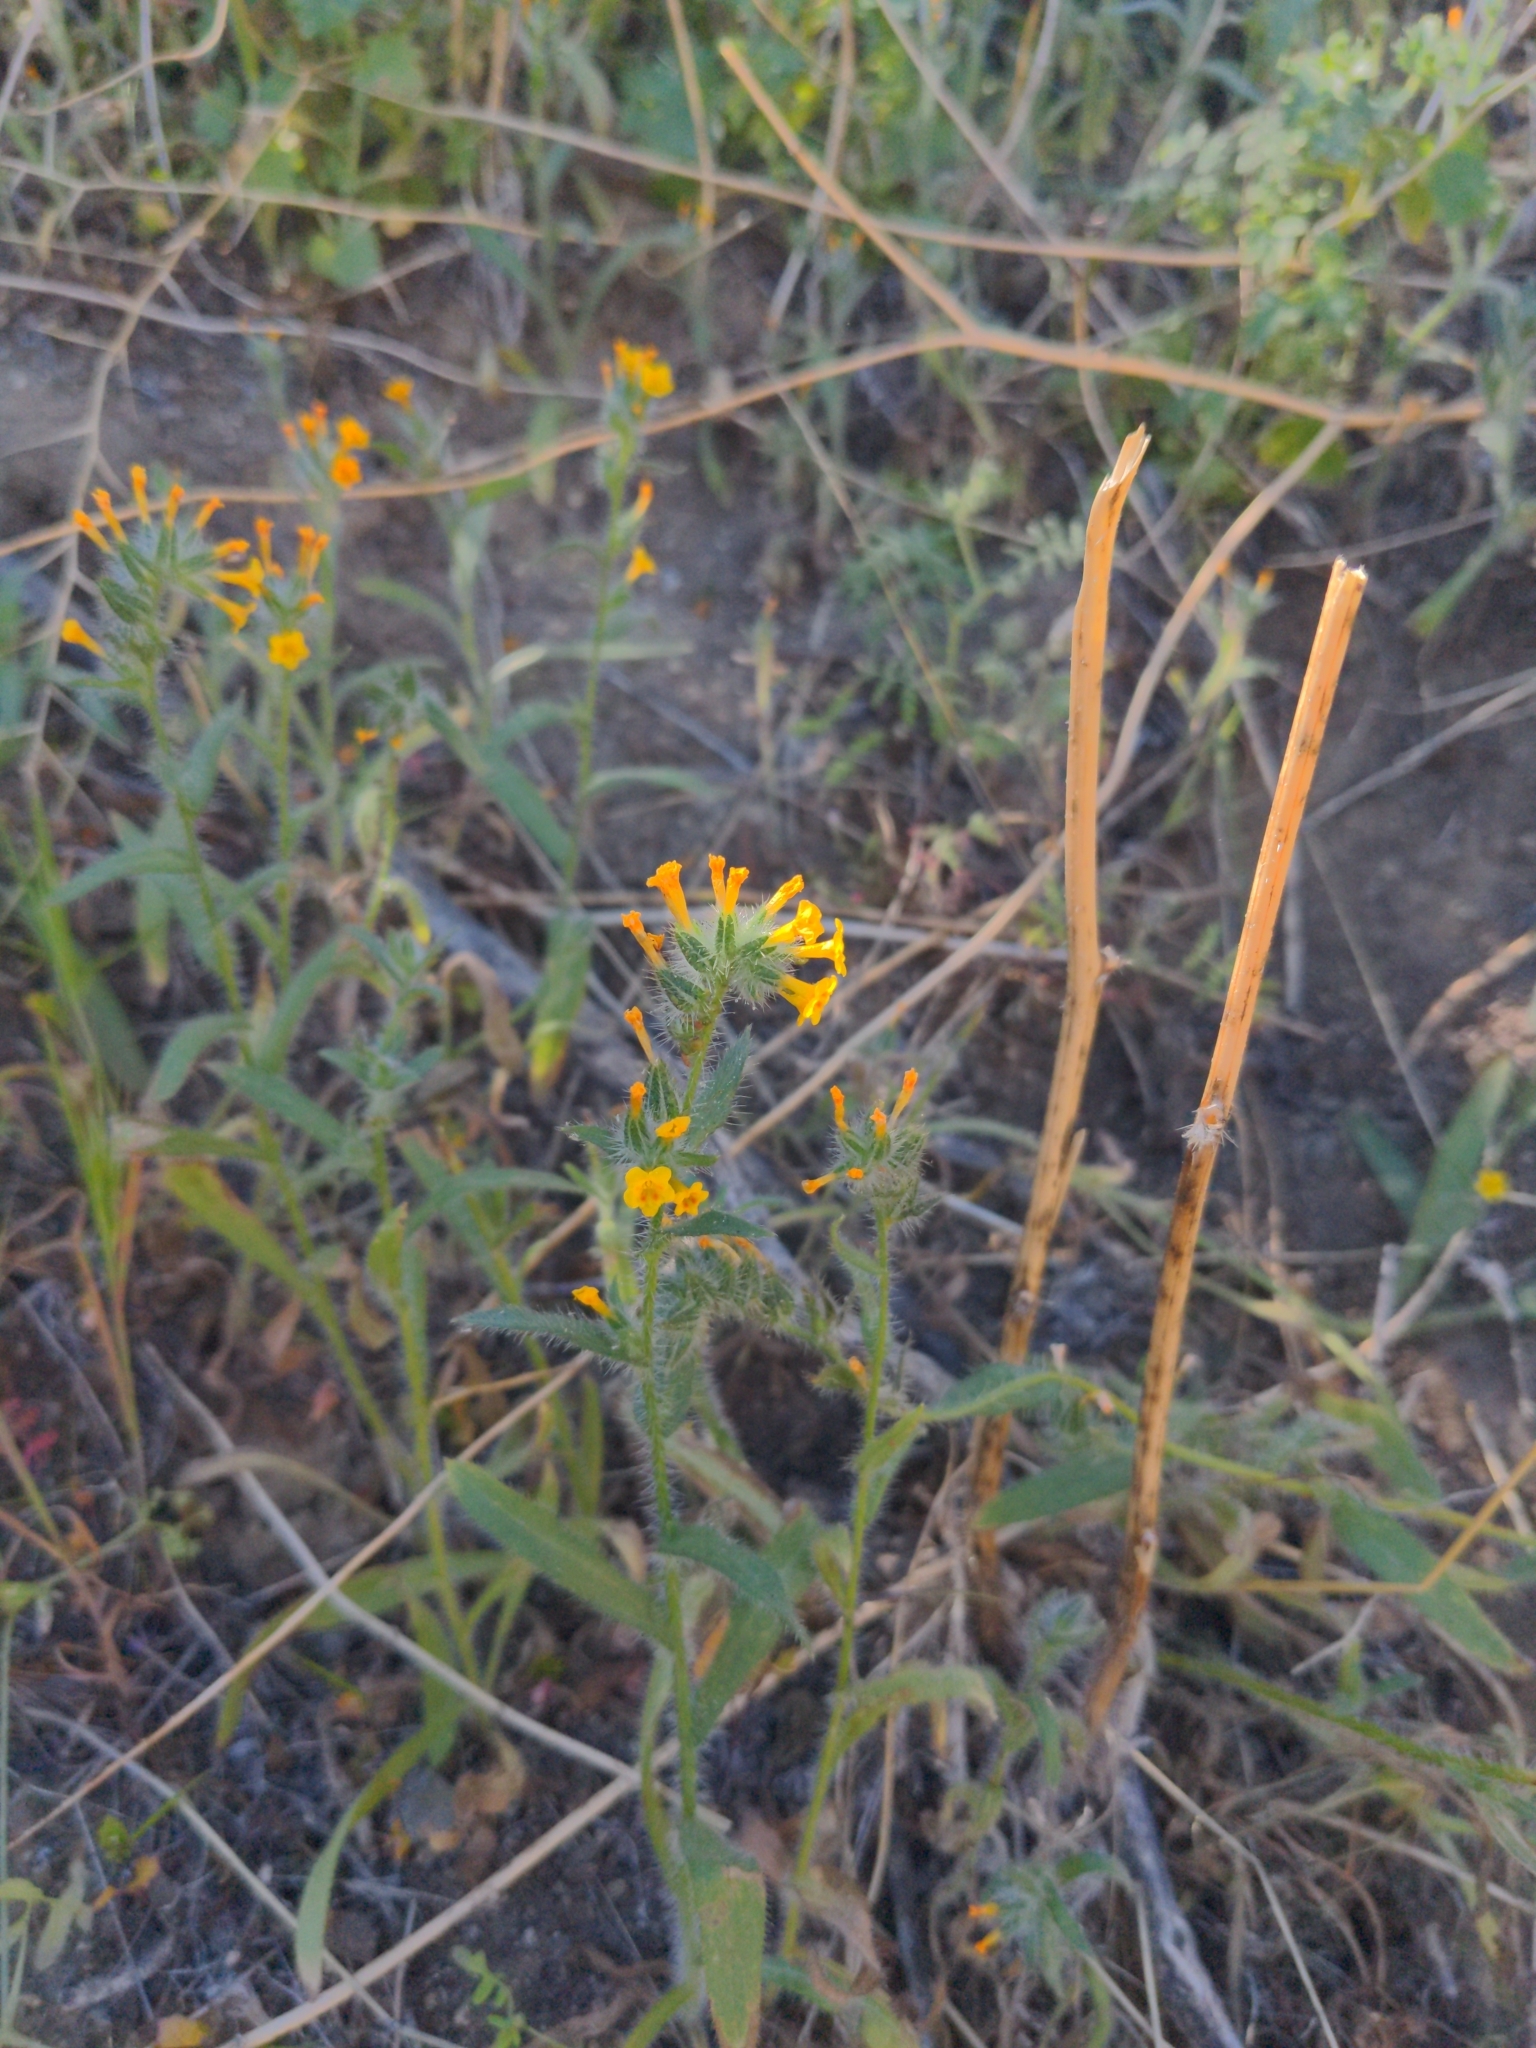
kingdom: Plantae
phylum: Tracheophyta
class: Magnoliopsida
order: Boraginales
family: Boraginaceae
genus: Amsinckia
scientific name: Amsinckia tessellata
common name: Tessellate fiddleneck
